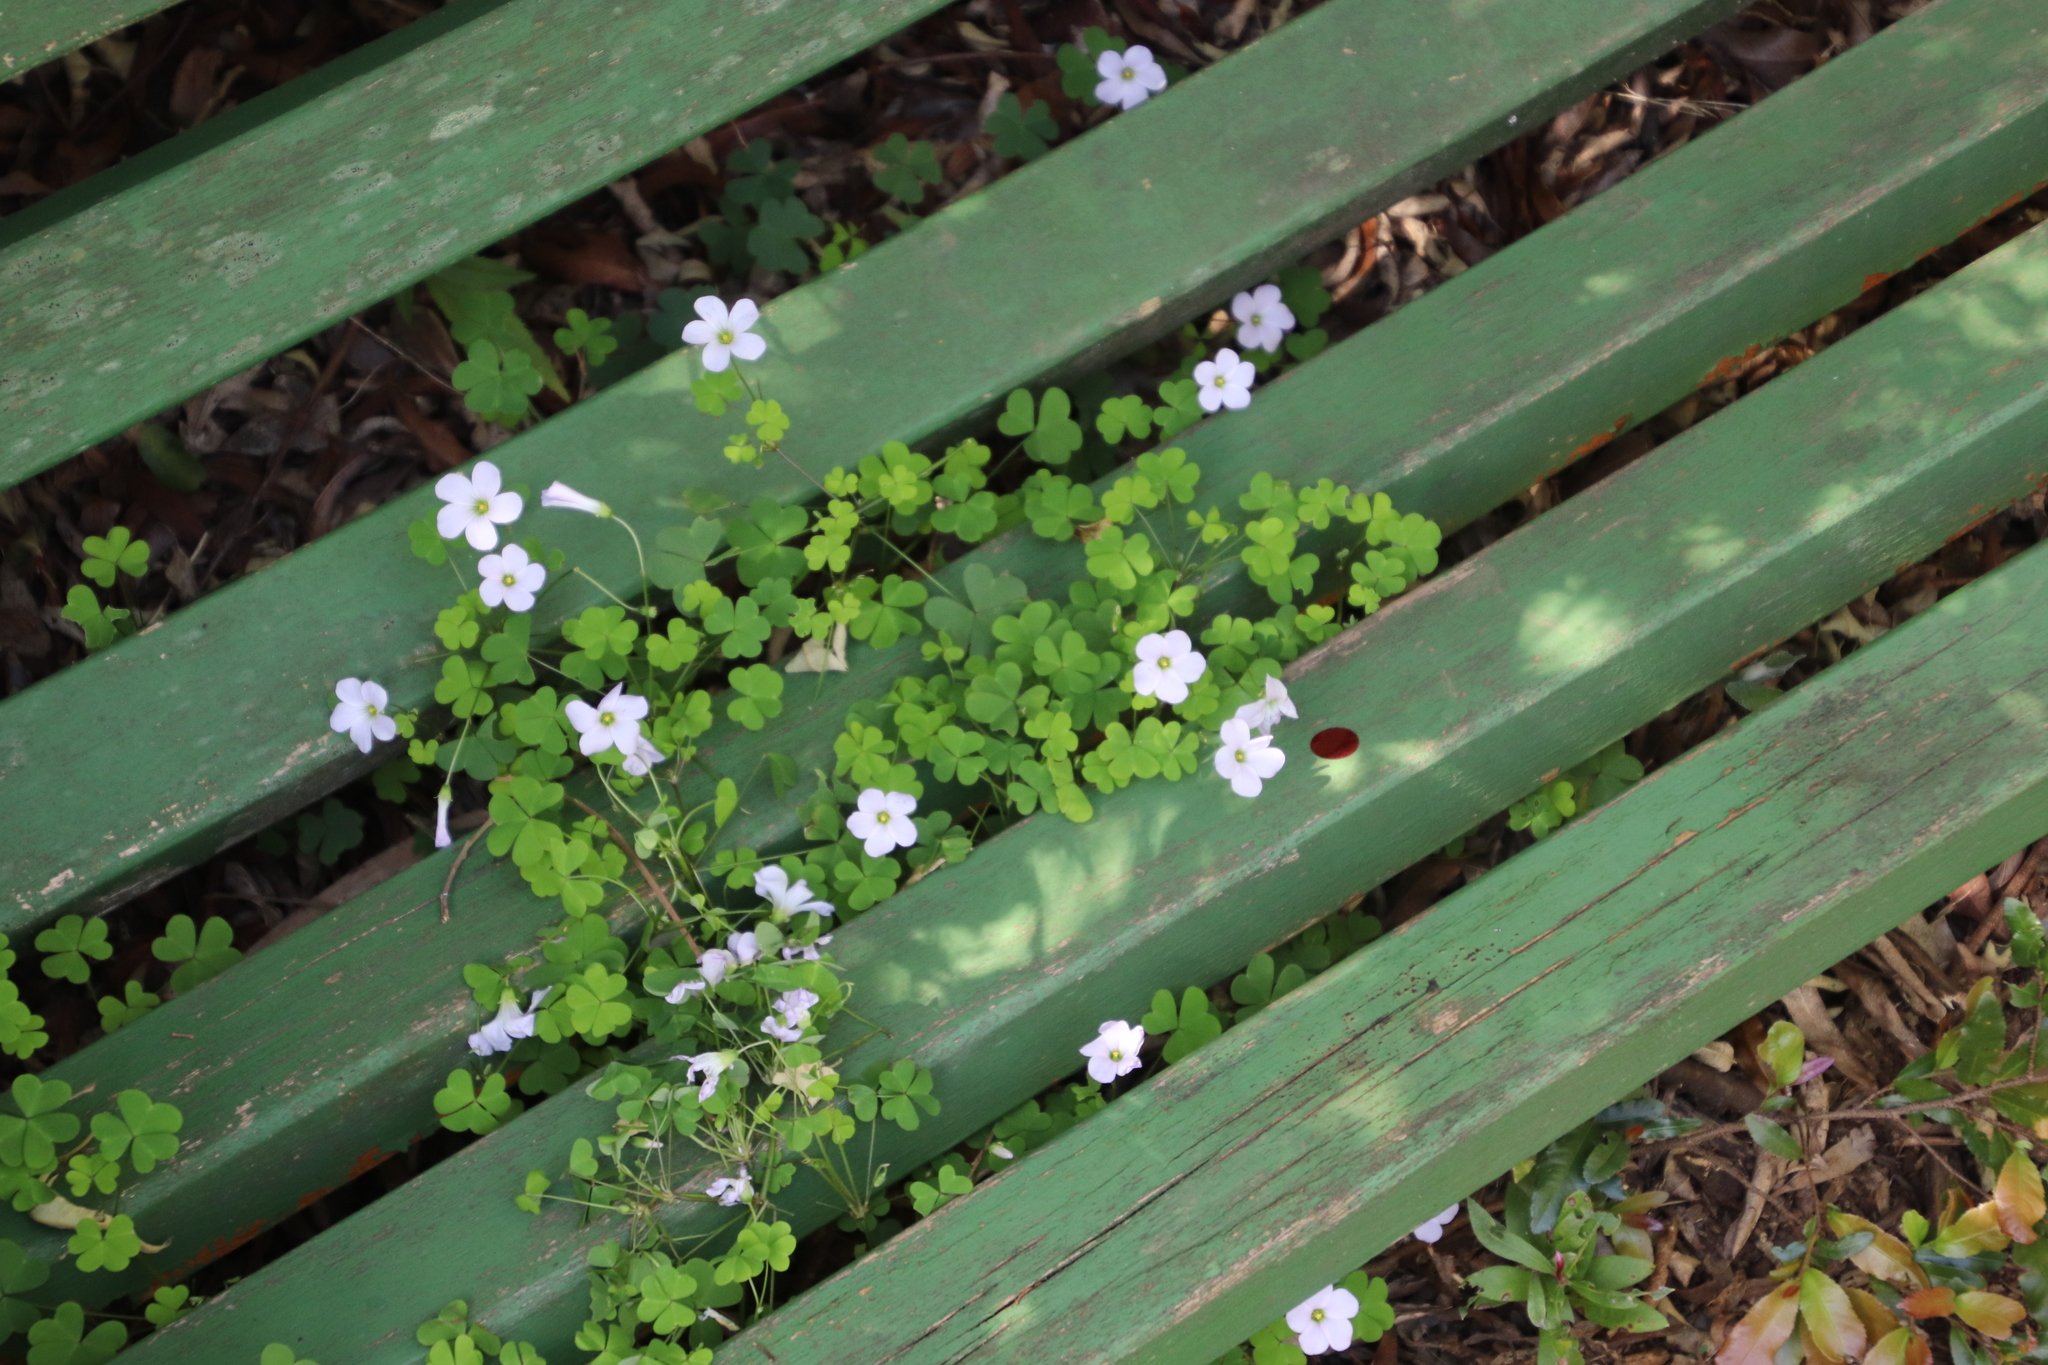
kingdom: Plantae
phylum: Tracheophyta
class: Magnoliopsida
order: Oxalidales
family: Oxalidaceae
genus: Oxalis
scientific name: Oxalis incarnata
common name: Pale pink-sorrel
